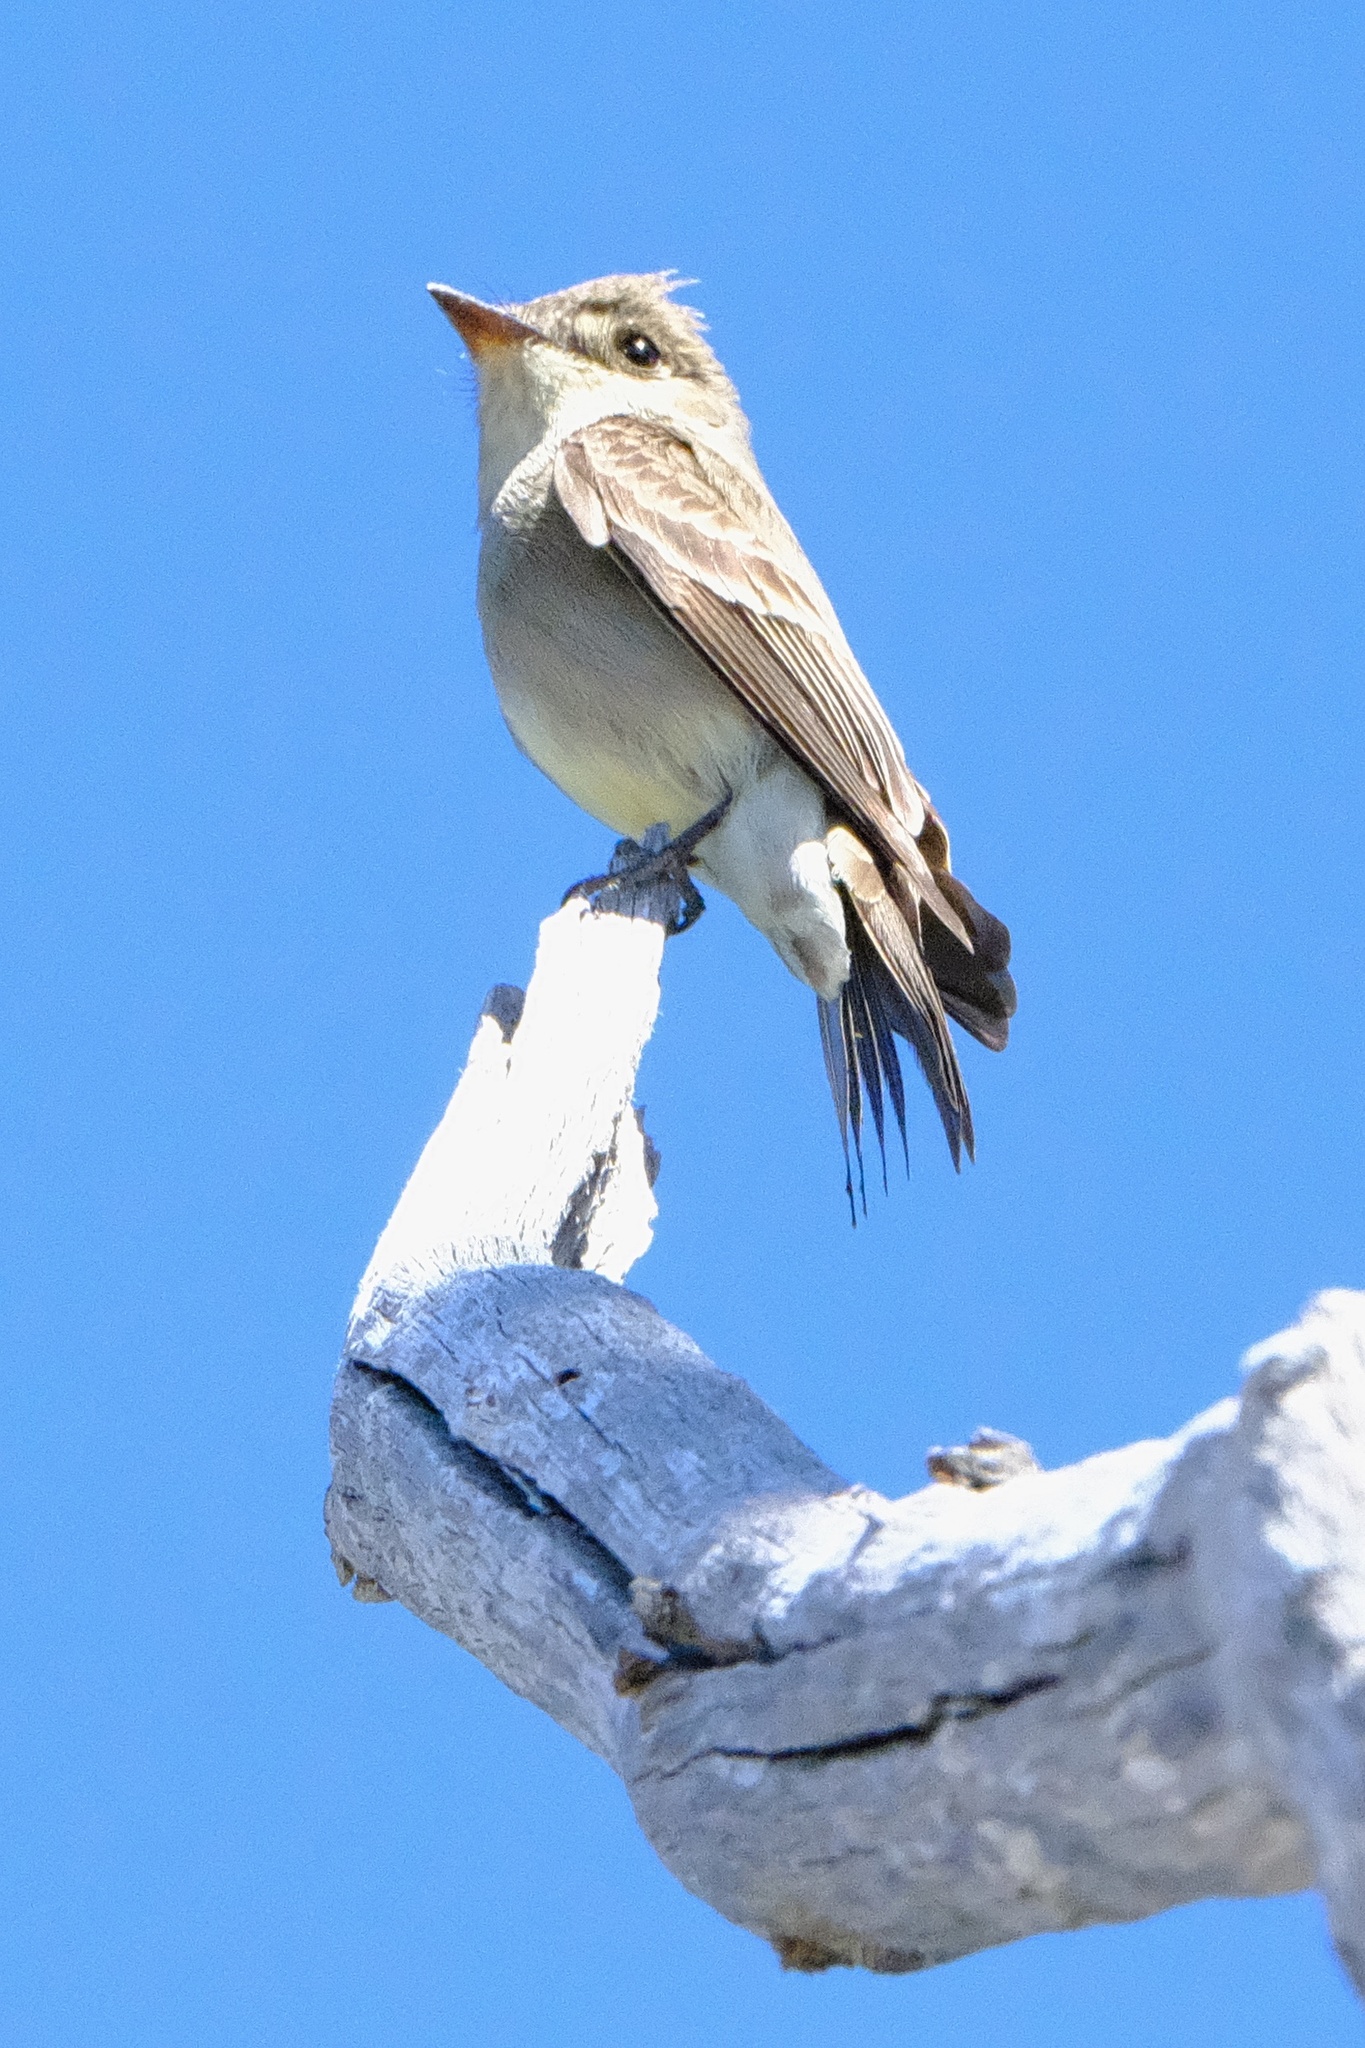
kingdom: Animalia
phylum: Chordata
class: Aves
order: Passeriformes
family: Tyrannidae
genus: Empidonax
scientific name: Empidonax traillii
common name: Willow flycatcher
